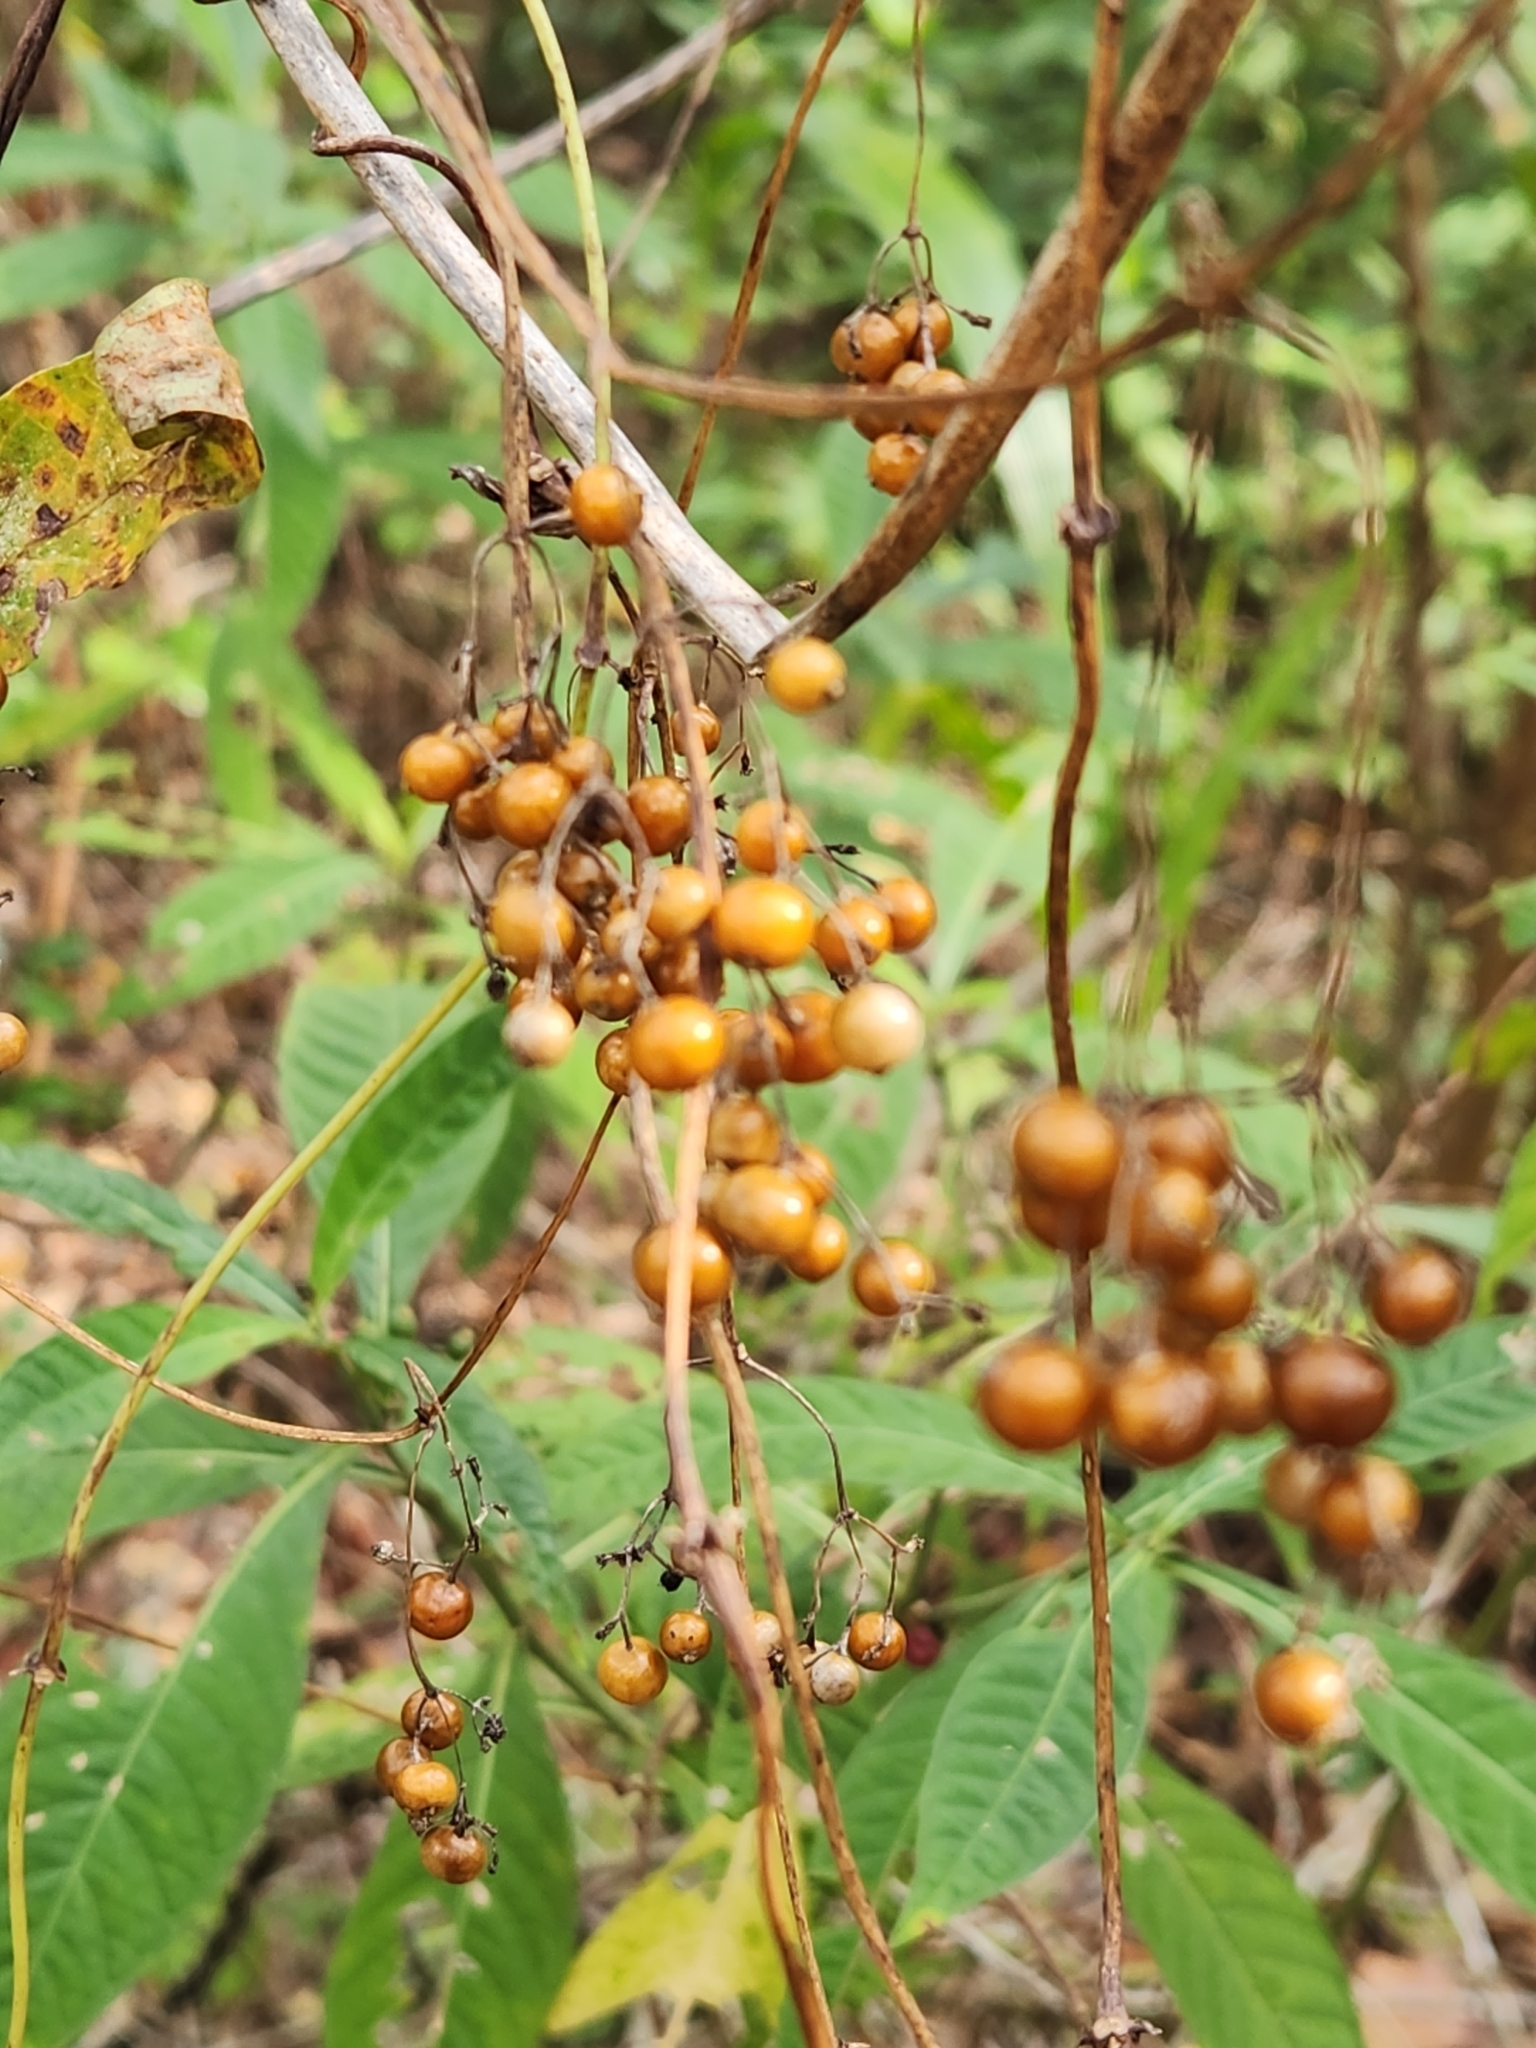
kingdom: Plantae
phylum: Tracheophyta
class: Magnoliopsida
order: Gentianales
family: Rubiaceae
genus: Paederia
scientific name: Paederia foetida
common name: Stinkvine
